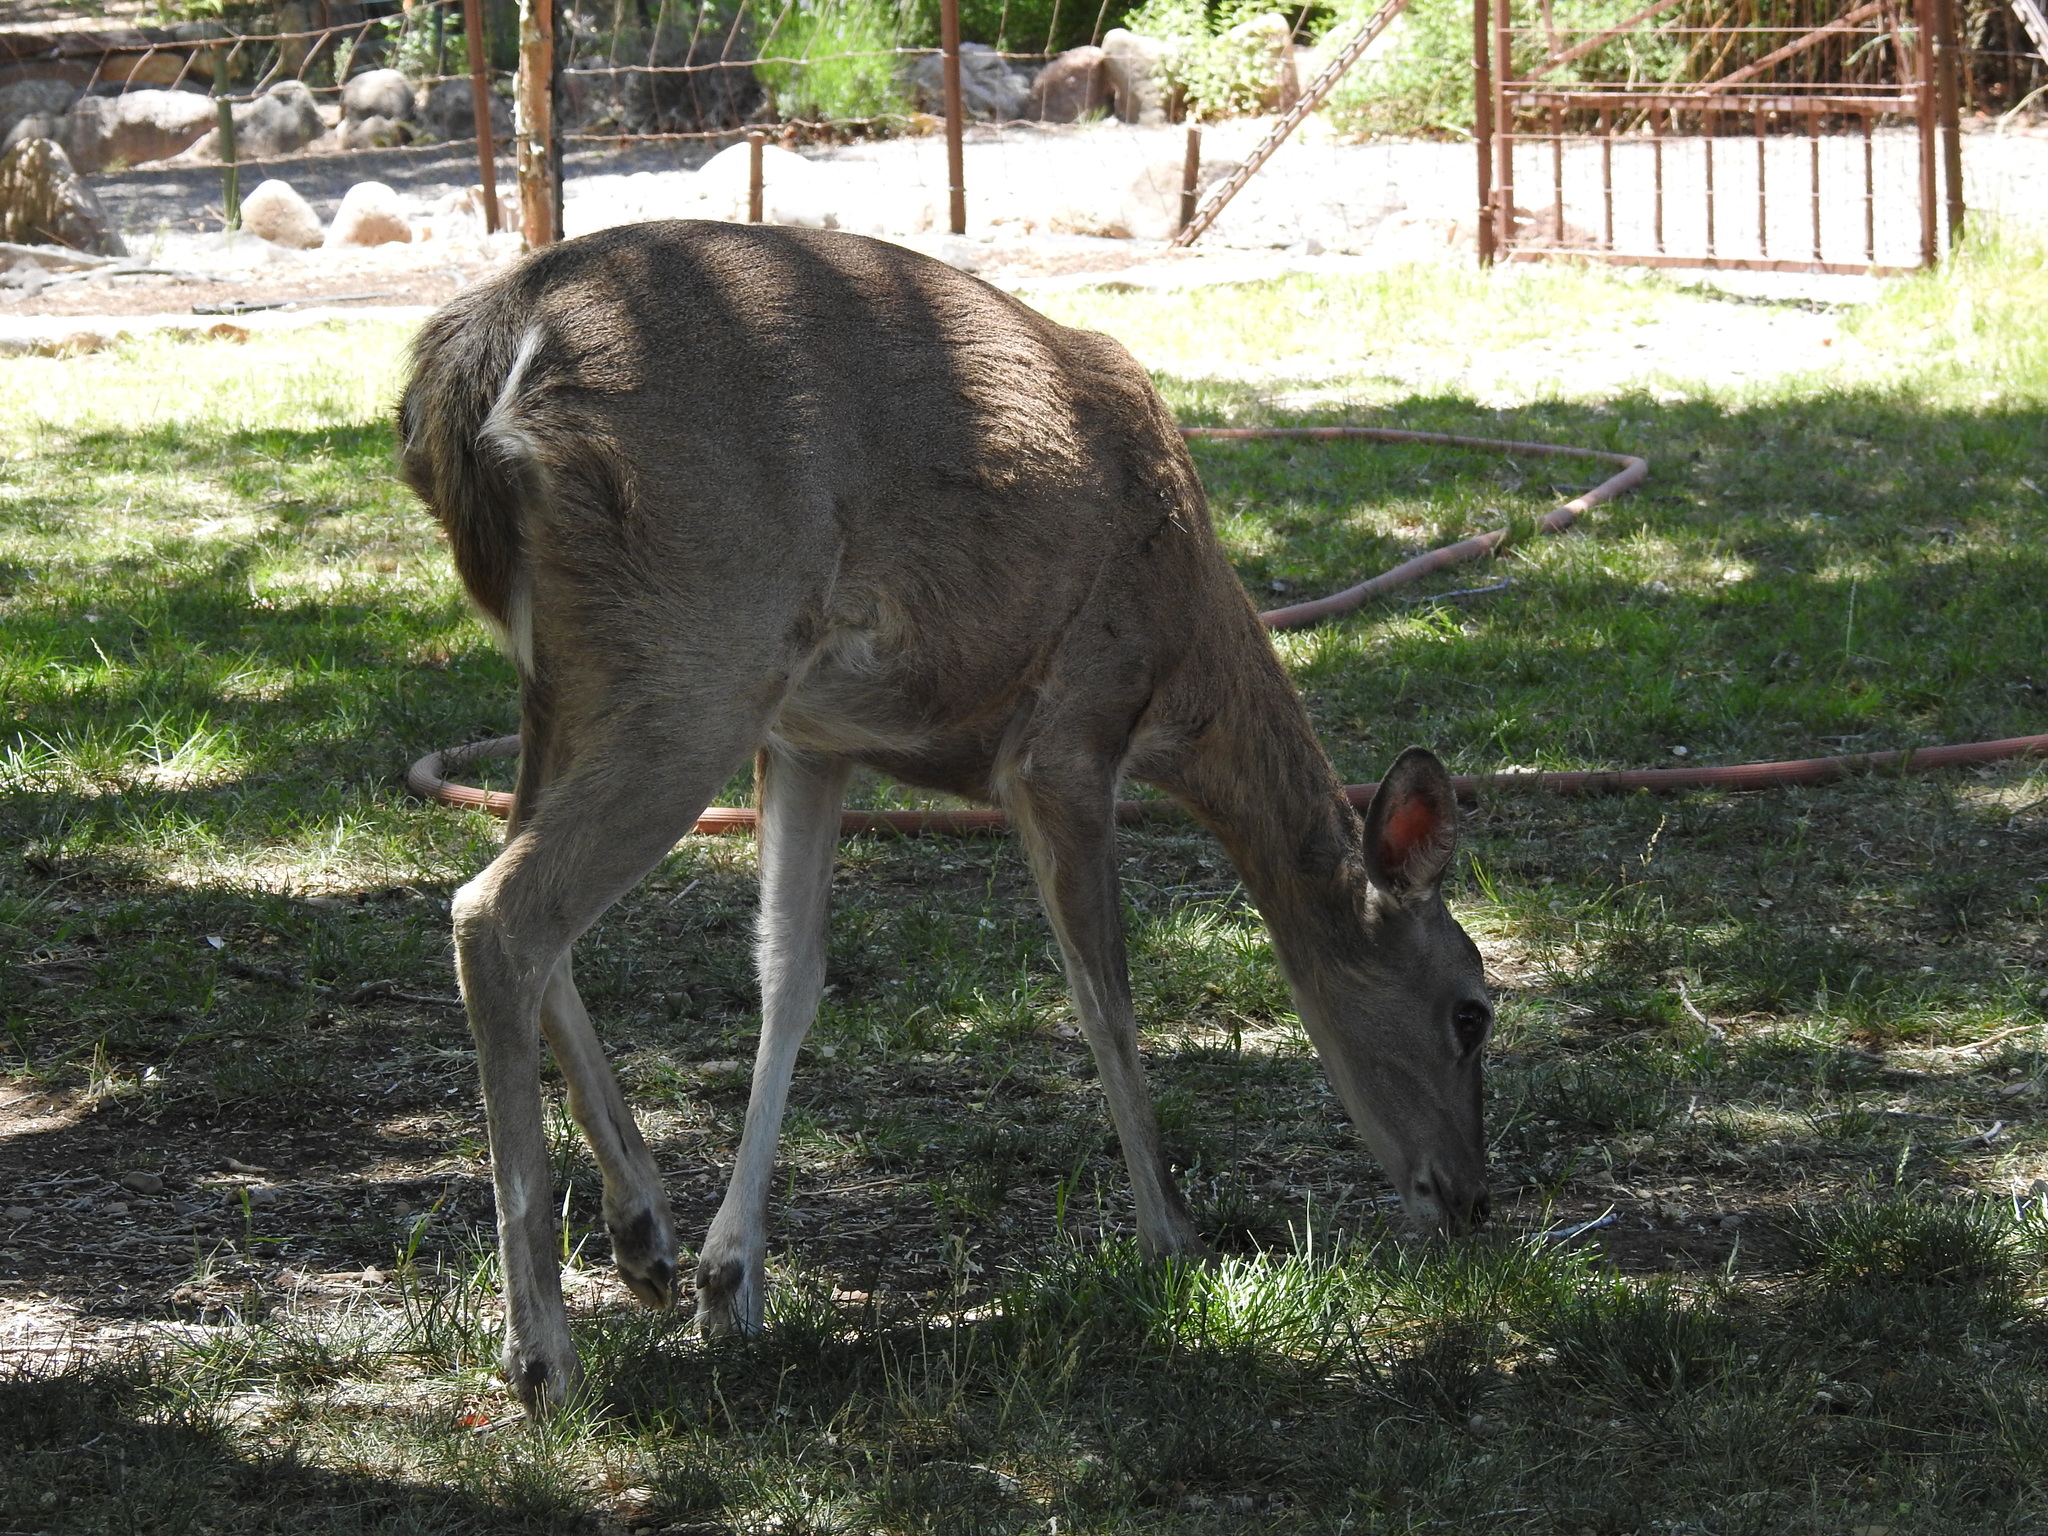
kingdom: Animalia
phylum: Chordata
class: Mammalia
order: Artiodactyla
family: Cervidae
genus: Odocoileus
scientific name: Odocoileus virginianus
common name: White-tailed deer
